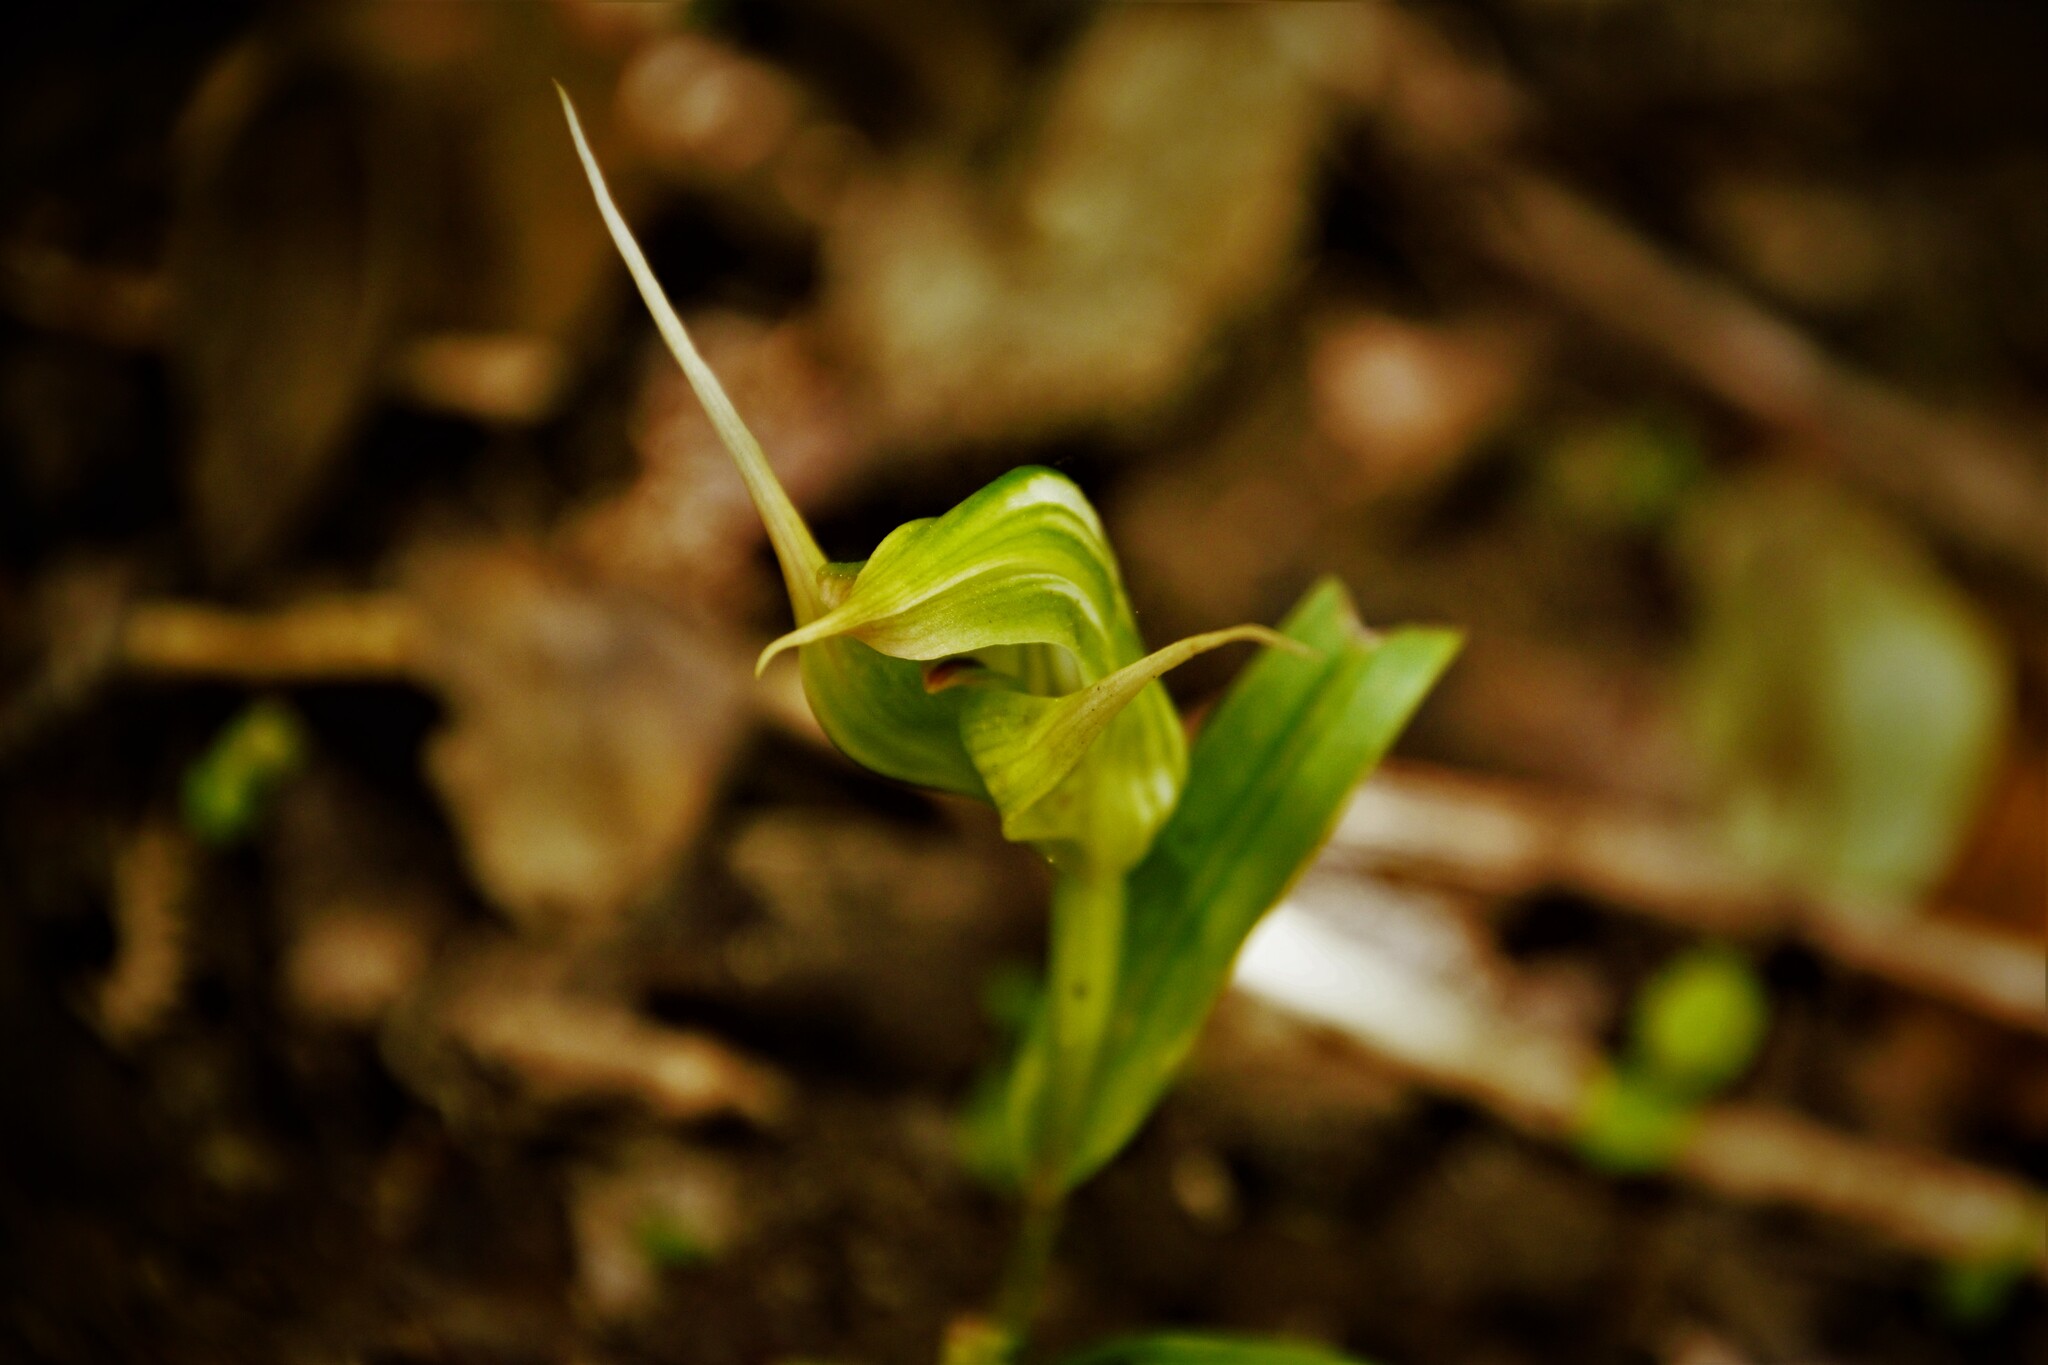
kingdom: Plantae
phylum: Tracheophyta
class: Liliopsida
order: Asparagales
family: Orchidaceae
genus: Pterostylis
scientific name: Pterostylis banksii
